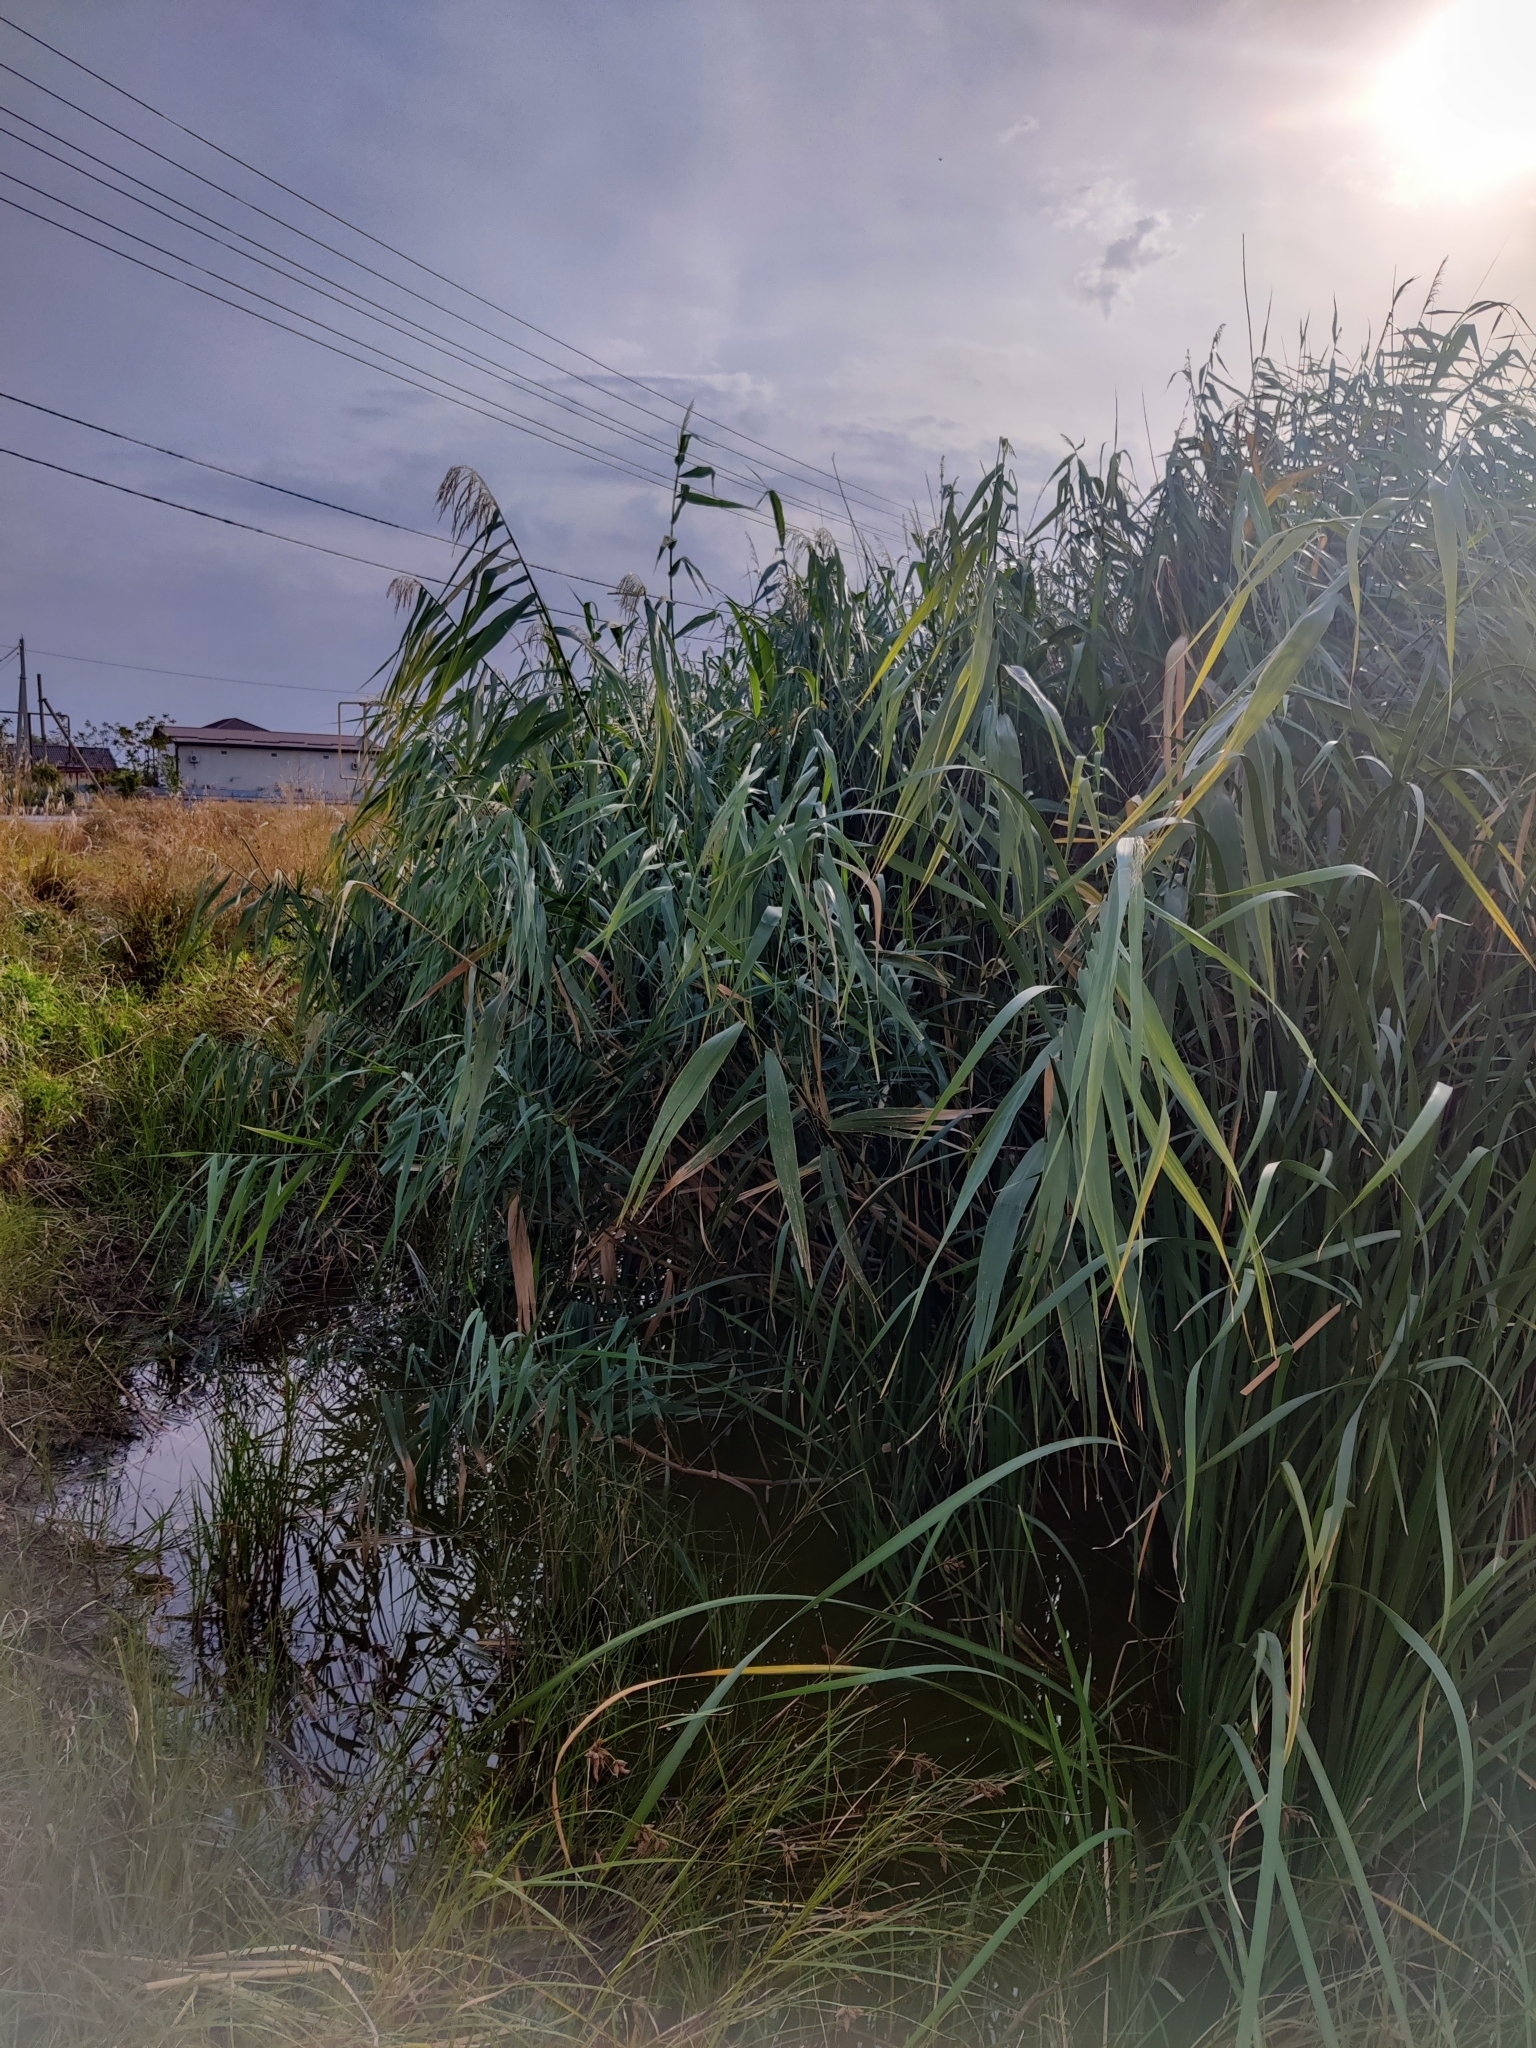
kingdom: Plantae
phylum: Tracheophyta
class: Liliopsida
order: Poales
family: Poaceae
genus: Phragmites
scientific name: Phragmites australis
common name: Common reed
